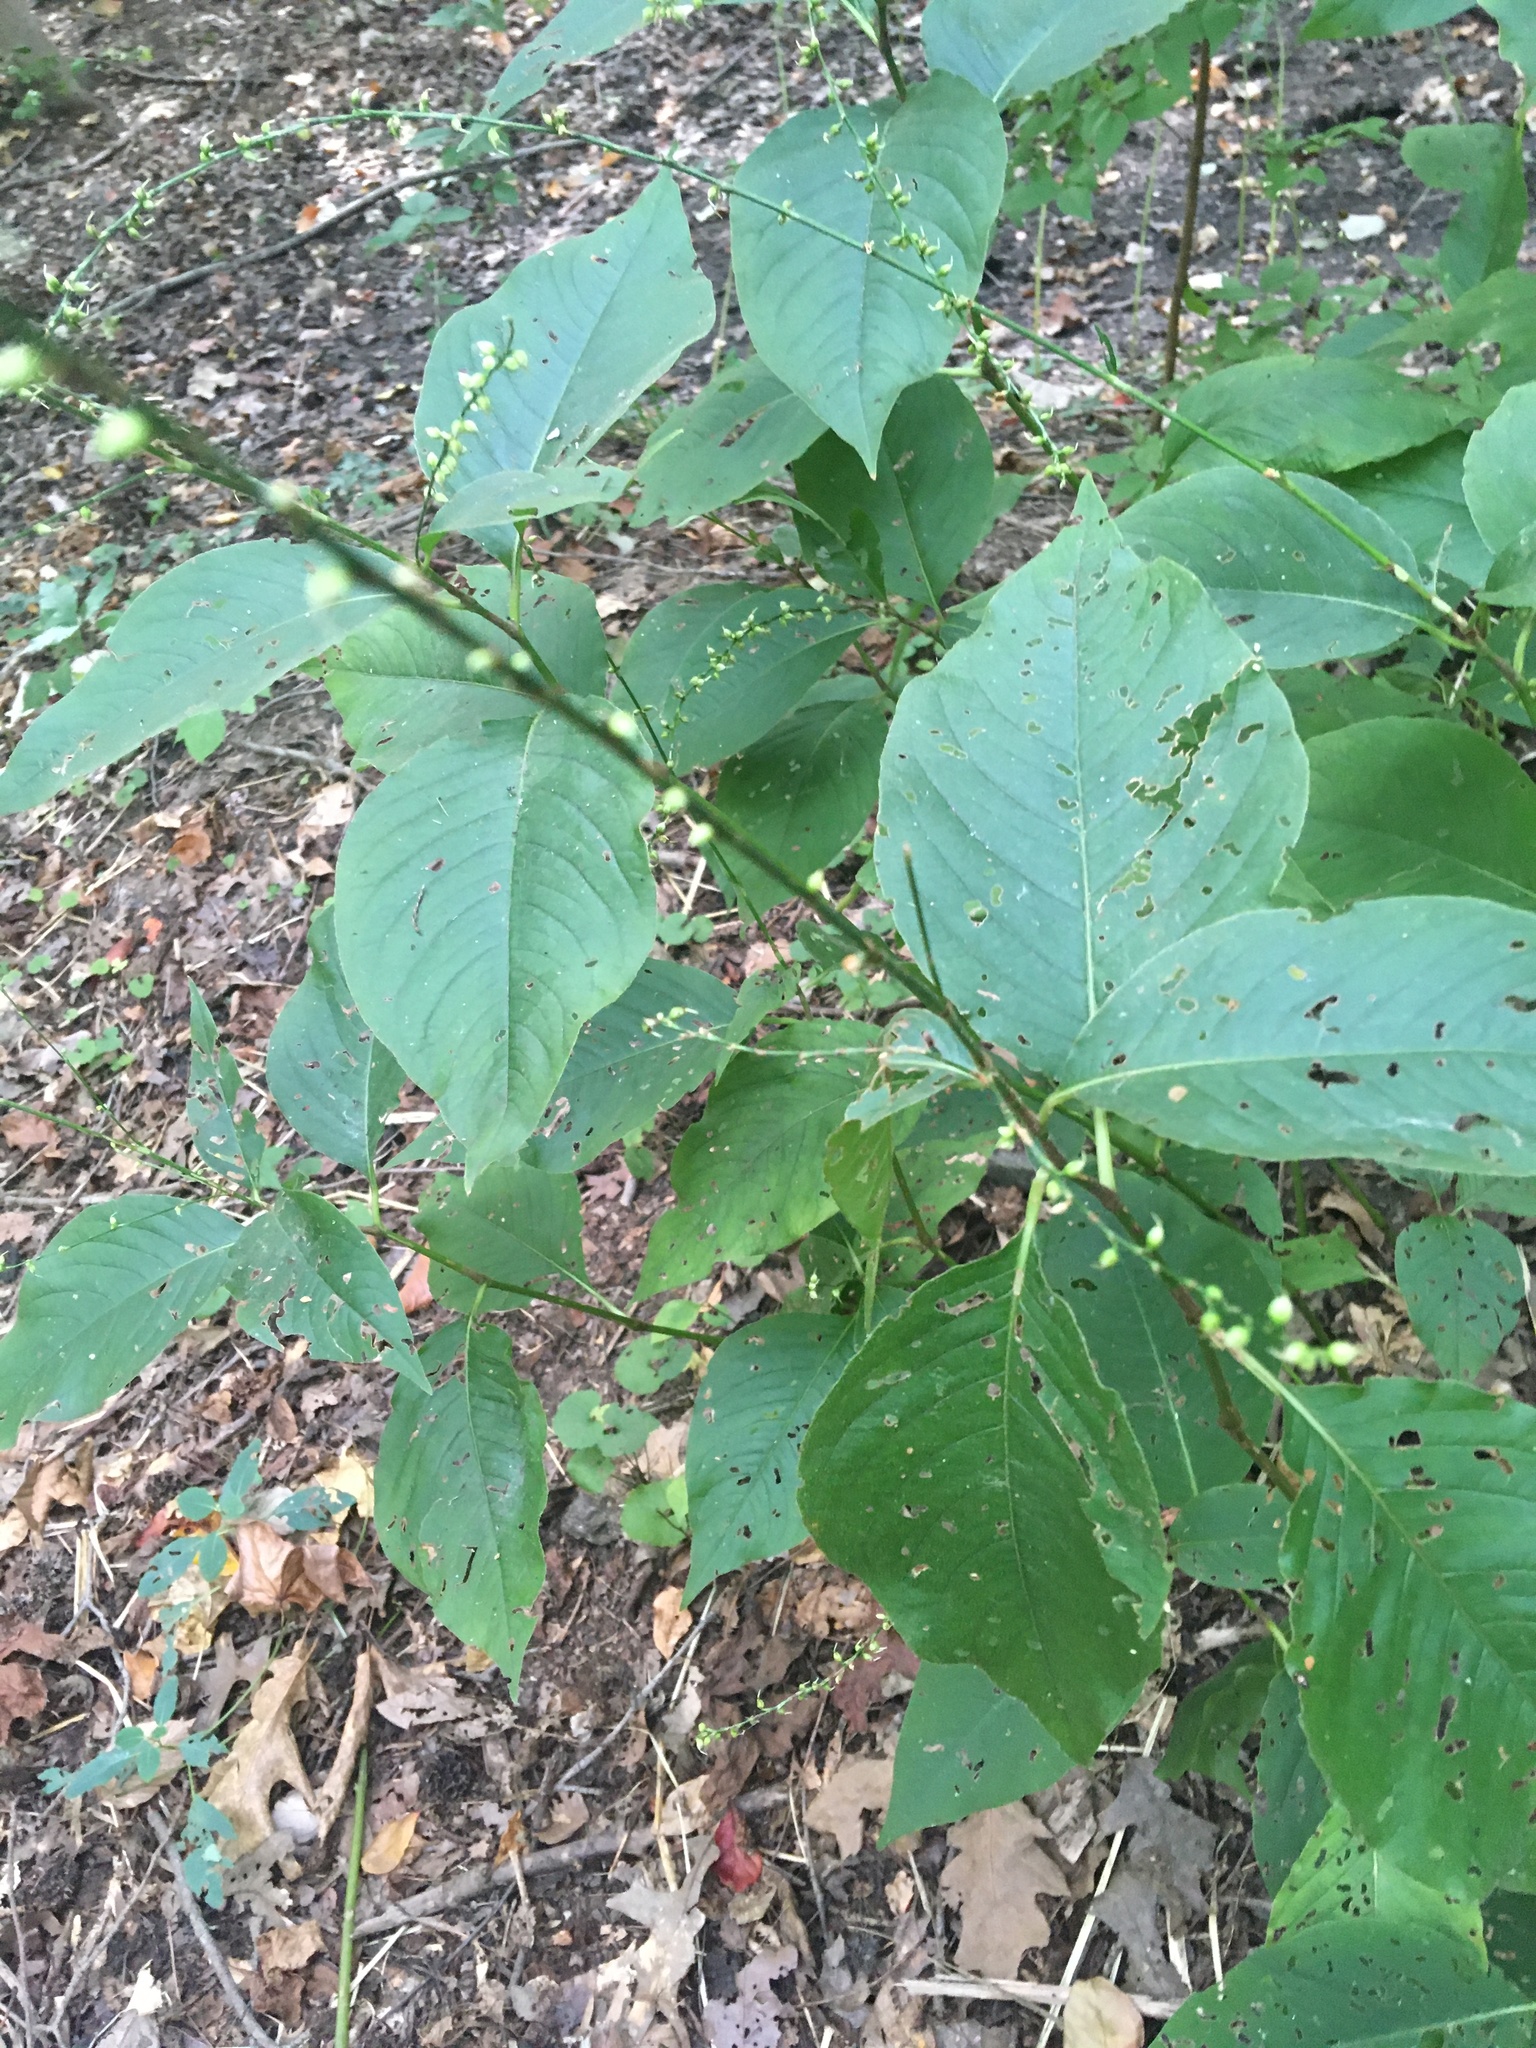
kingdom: Plantae
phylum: Tracheophyta
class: Magnoliopsida
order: Caryophyllales
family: Polygonaceae
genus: Persicaria
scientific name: Persicaria virginiana
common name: Jumpseed
